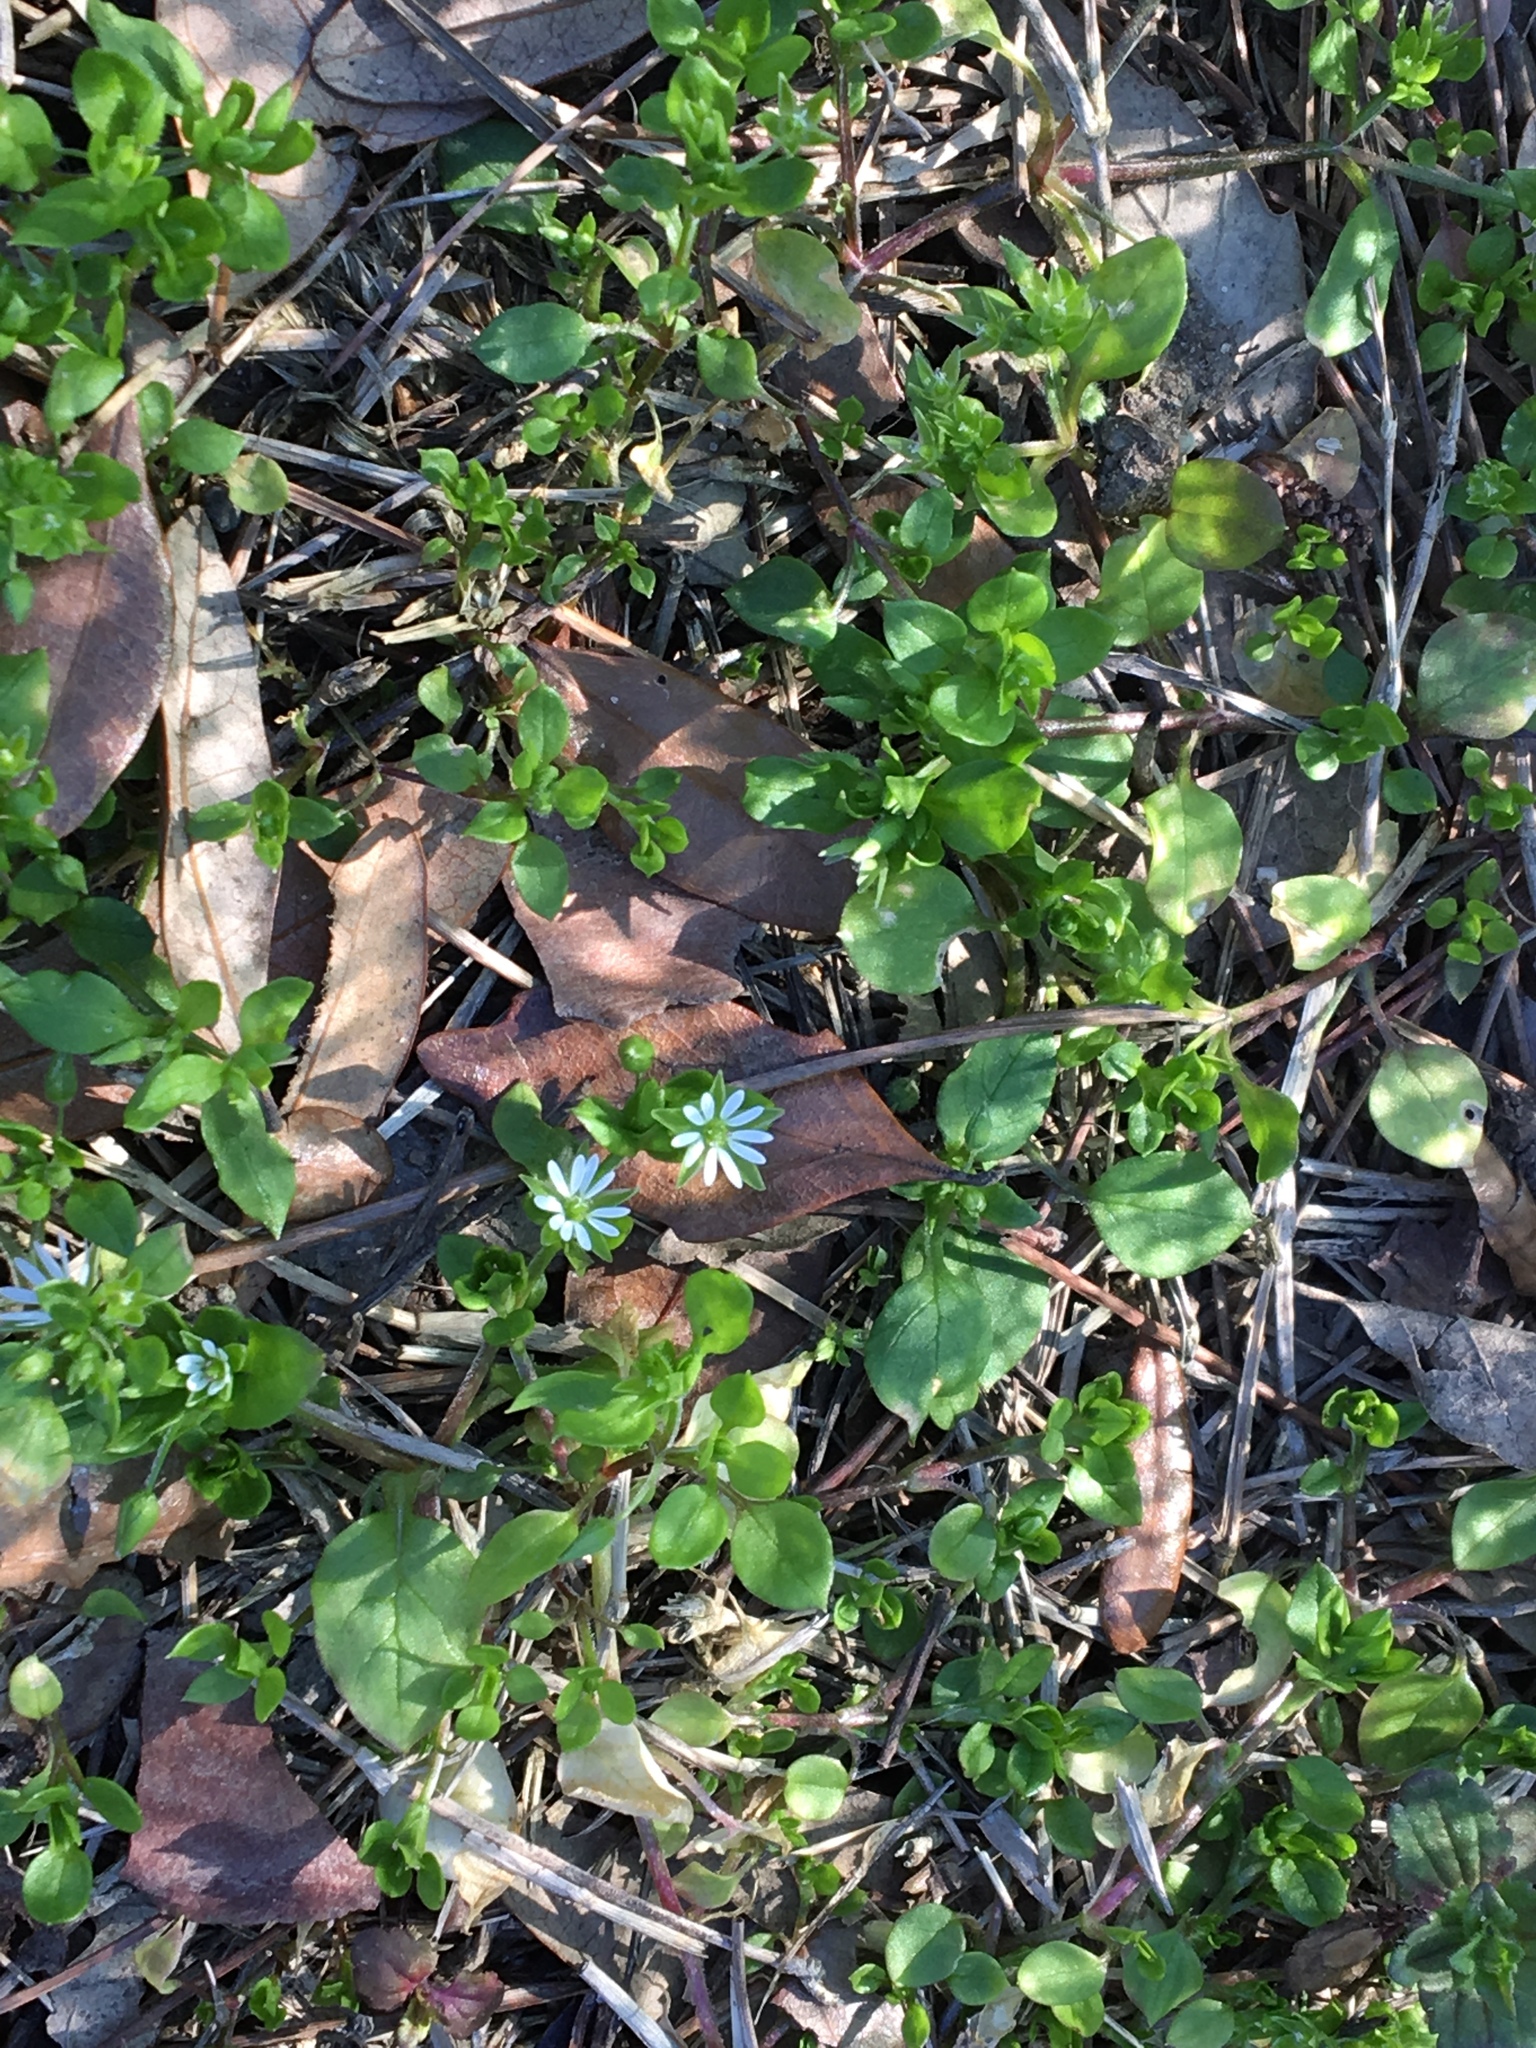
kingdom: Plantae
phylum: Tracheophyta
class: Magnoliopsida
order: Caryophyllales
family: Caryophyllaceae
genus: Stellaria
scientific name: Stellaria media
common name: Common chickweed
